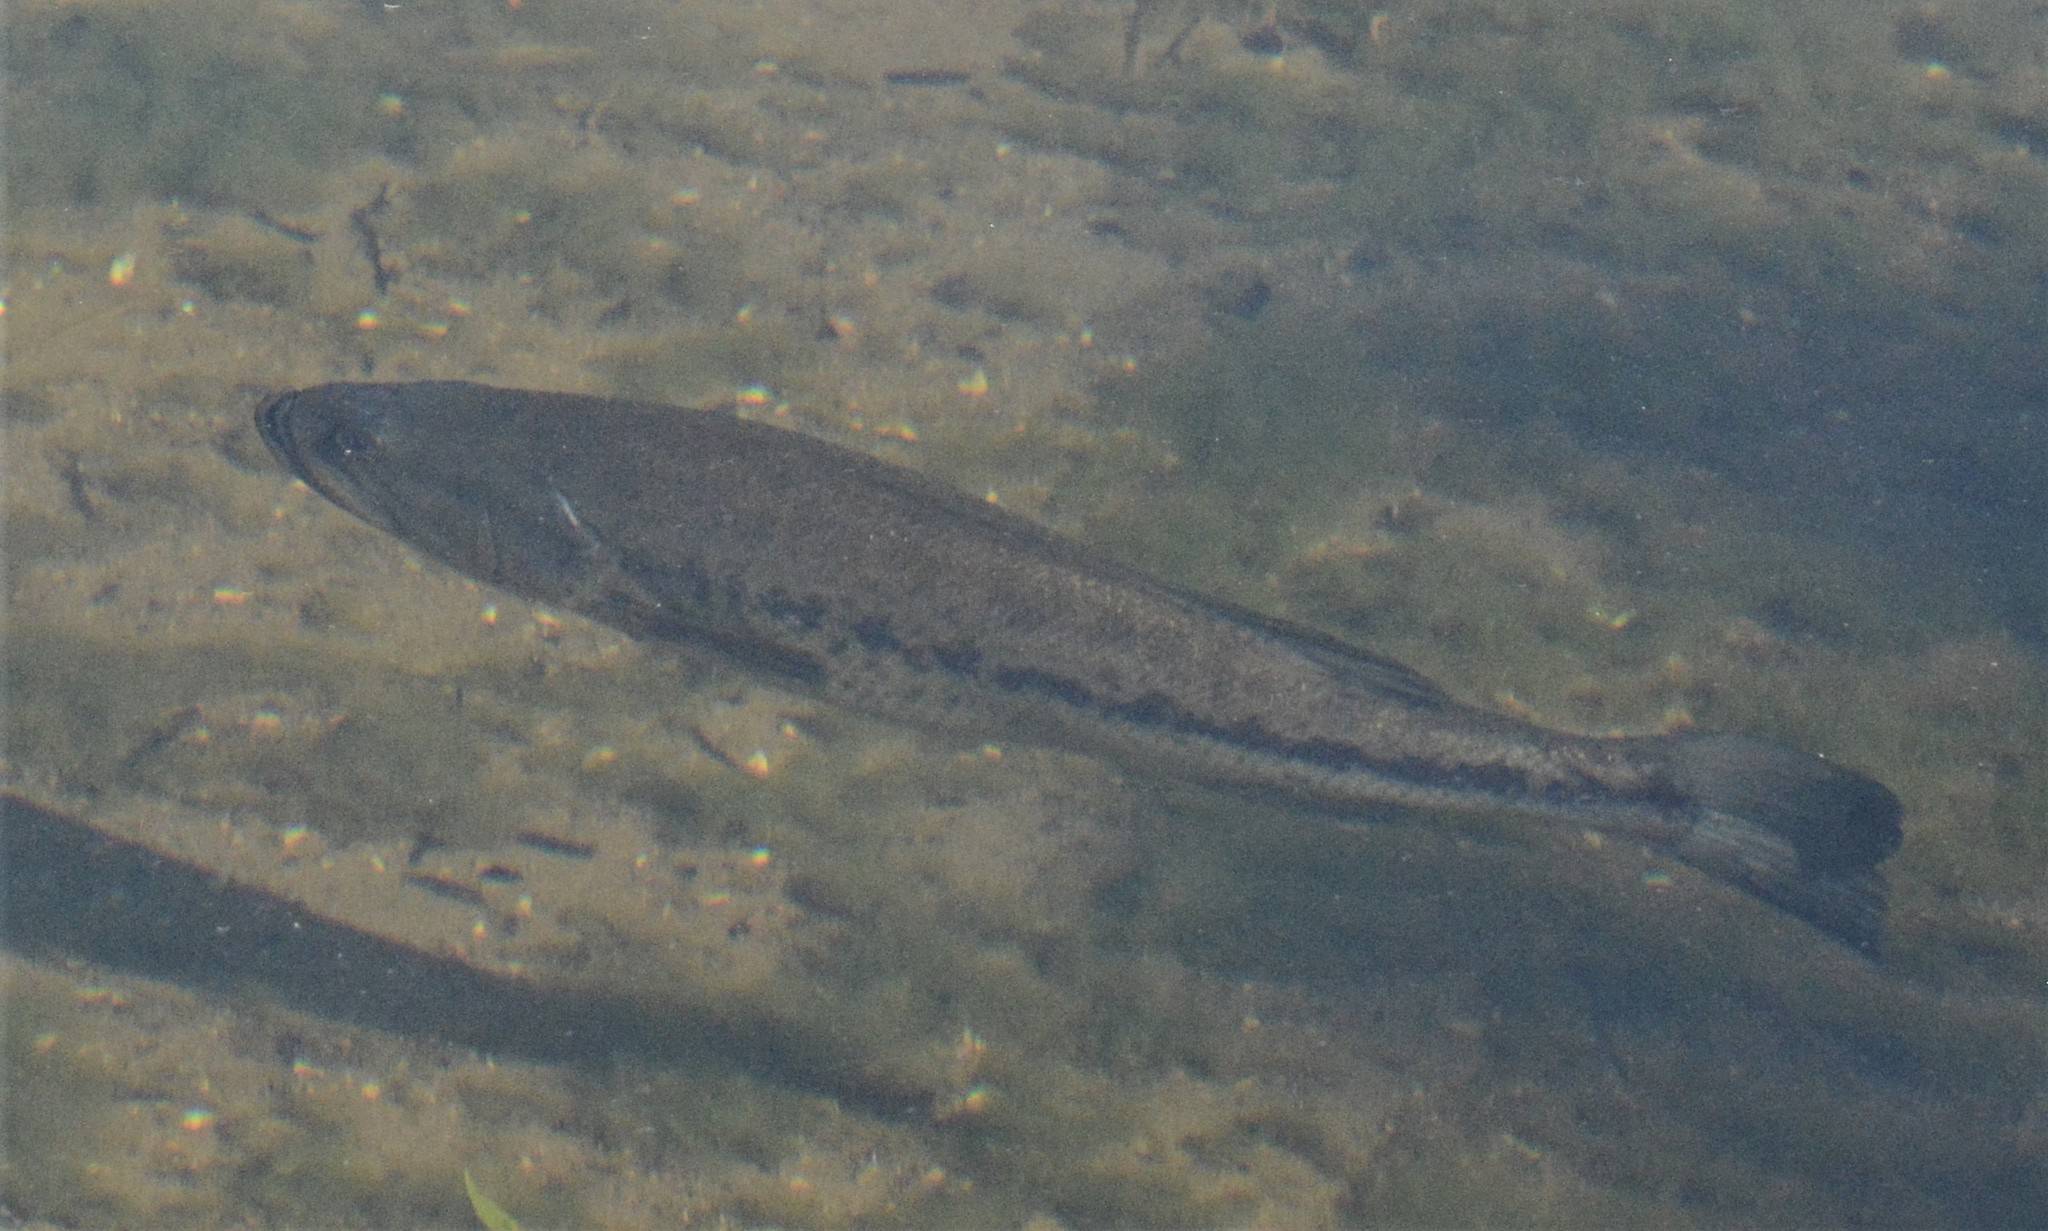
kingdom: Animalia
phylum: Chordata
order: Perciformes
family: Centrarchidae
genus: Micropterus
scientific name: Micropterus
